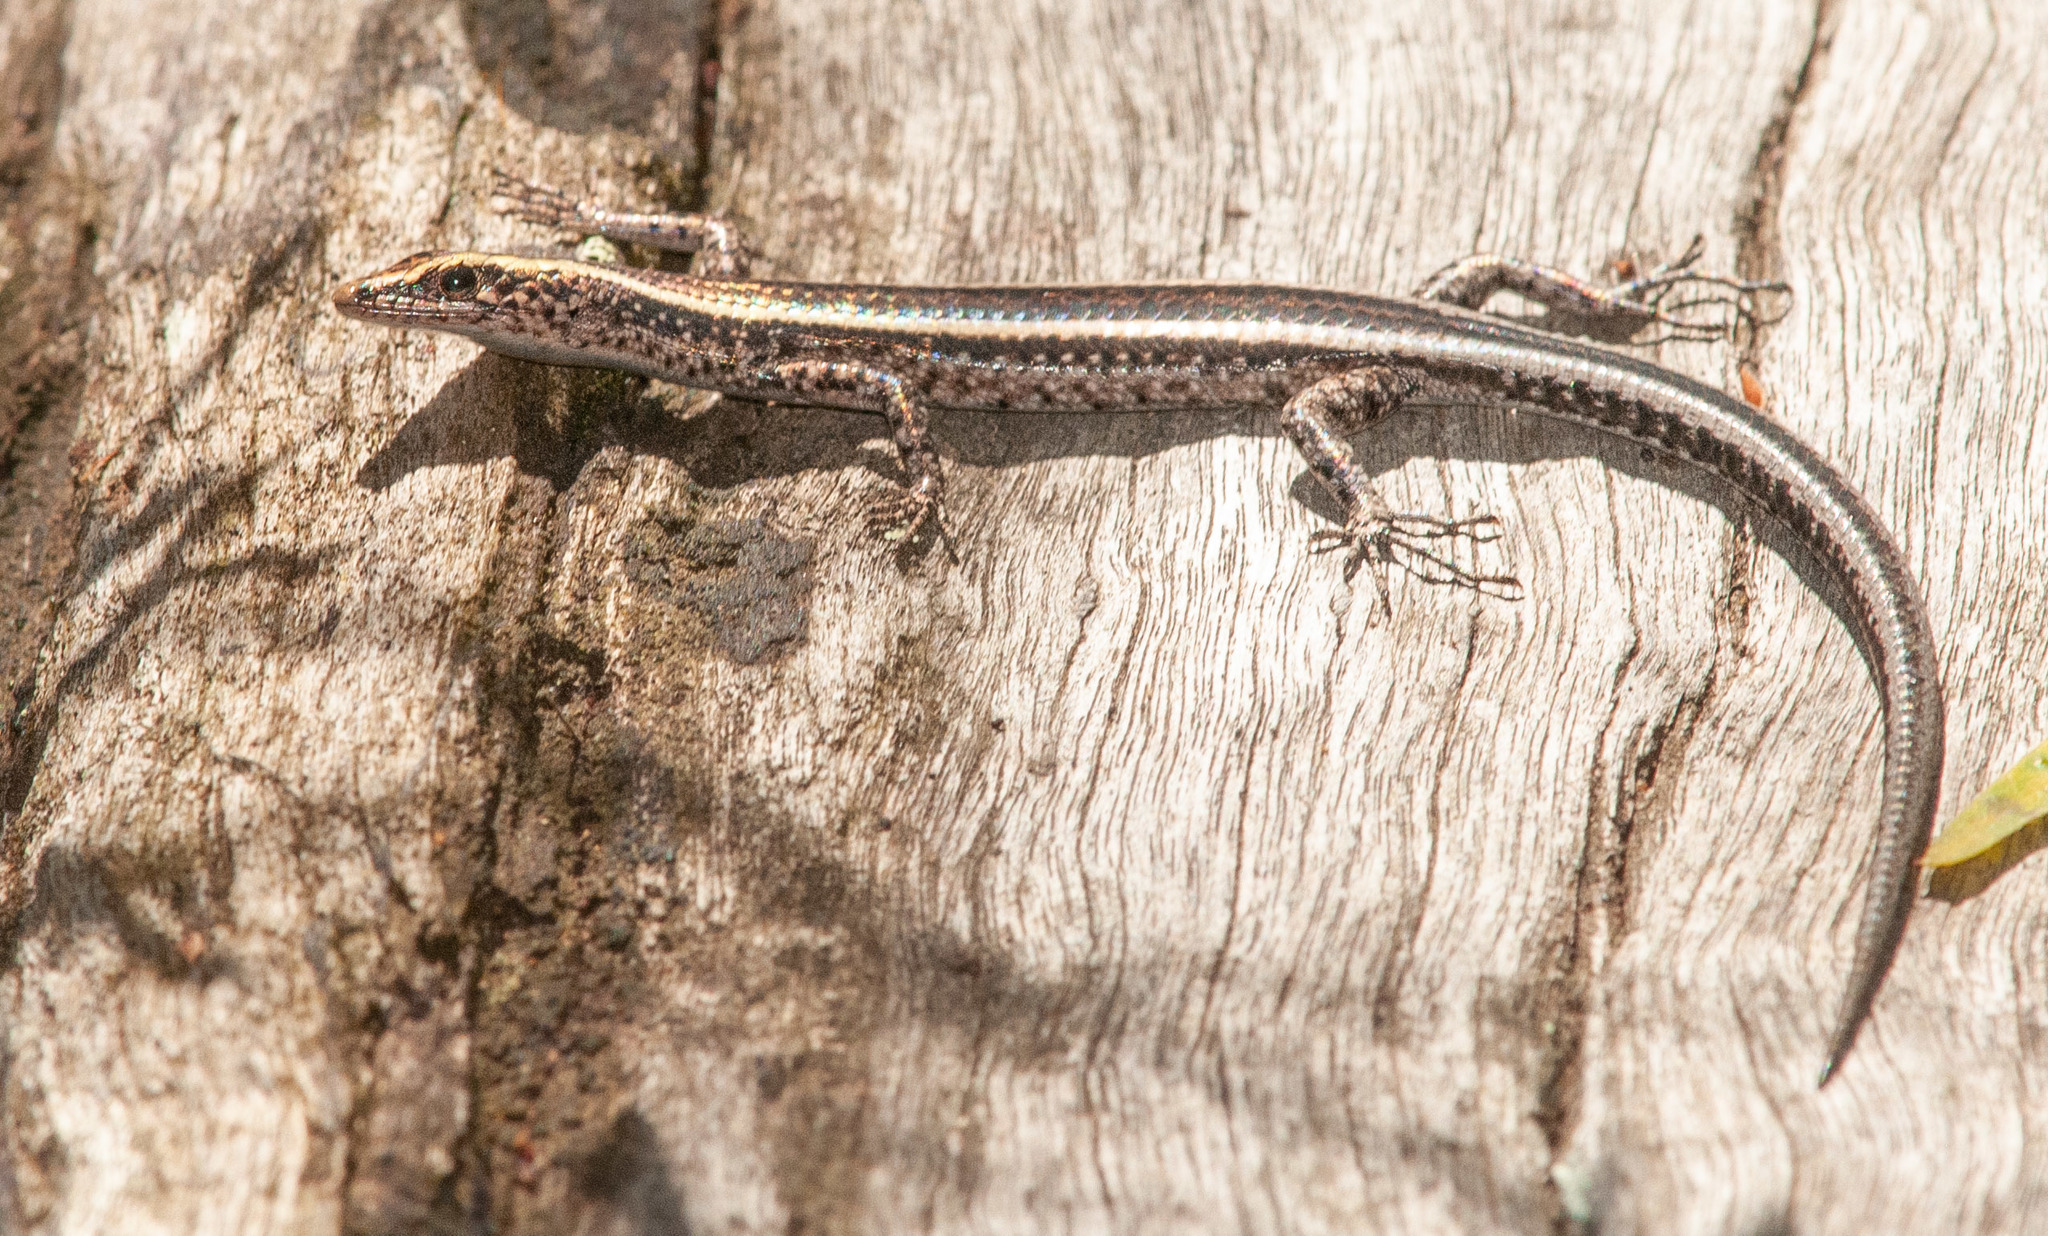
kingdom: Animalia
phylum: Chordata
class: Squamata
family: Scincidae
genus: Cryptoblepharus
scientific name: Cryptoblepharus pulcher
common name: Elegant snake-eyed skink
